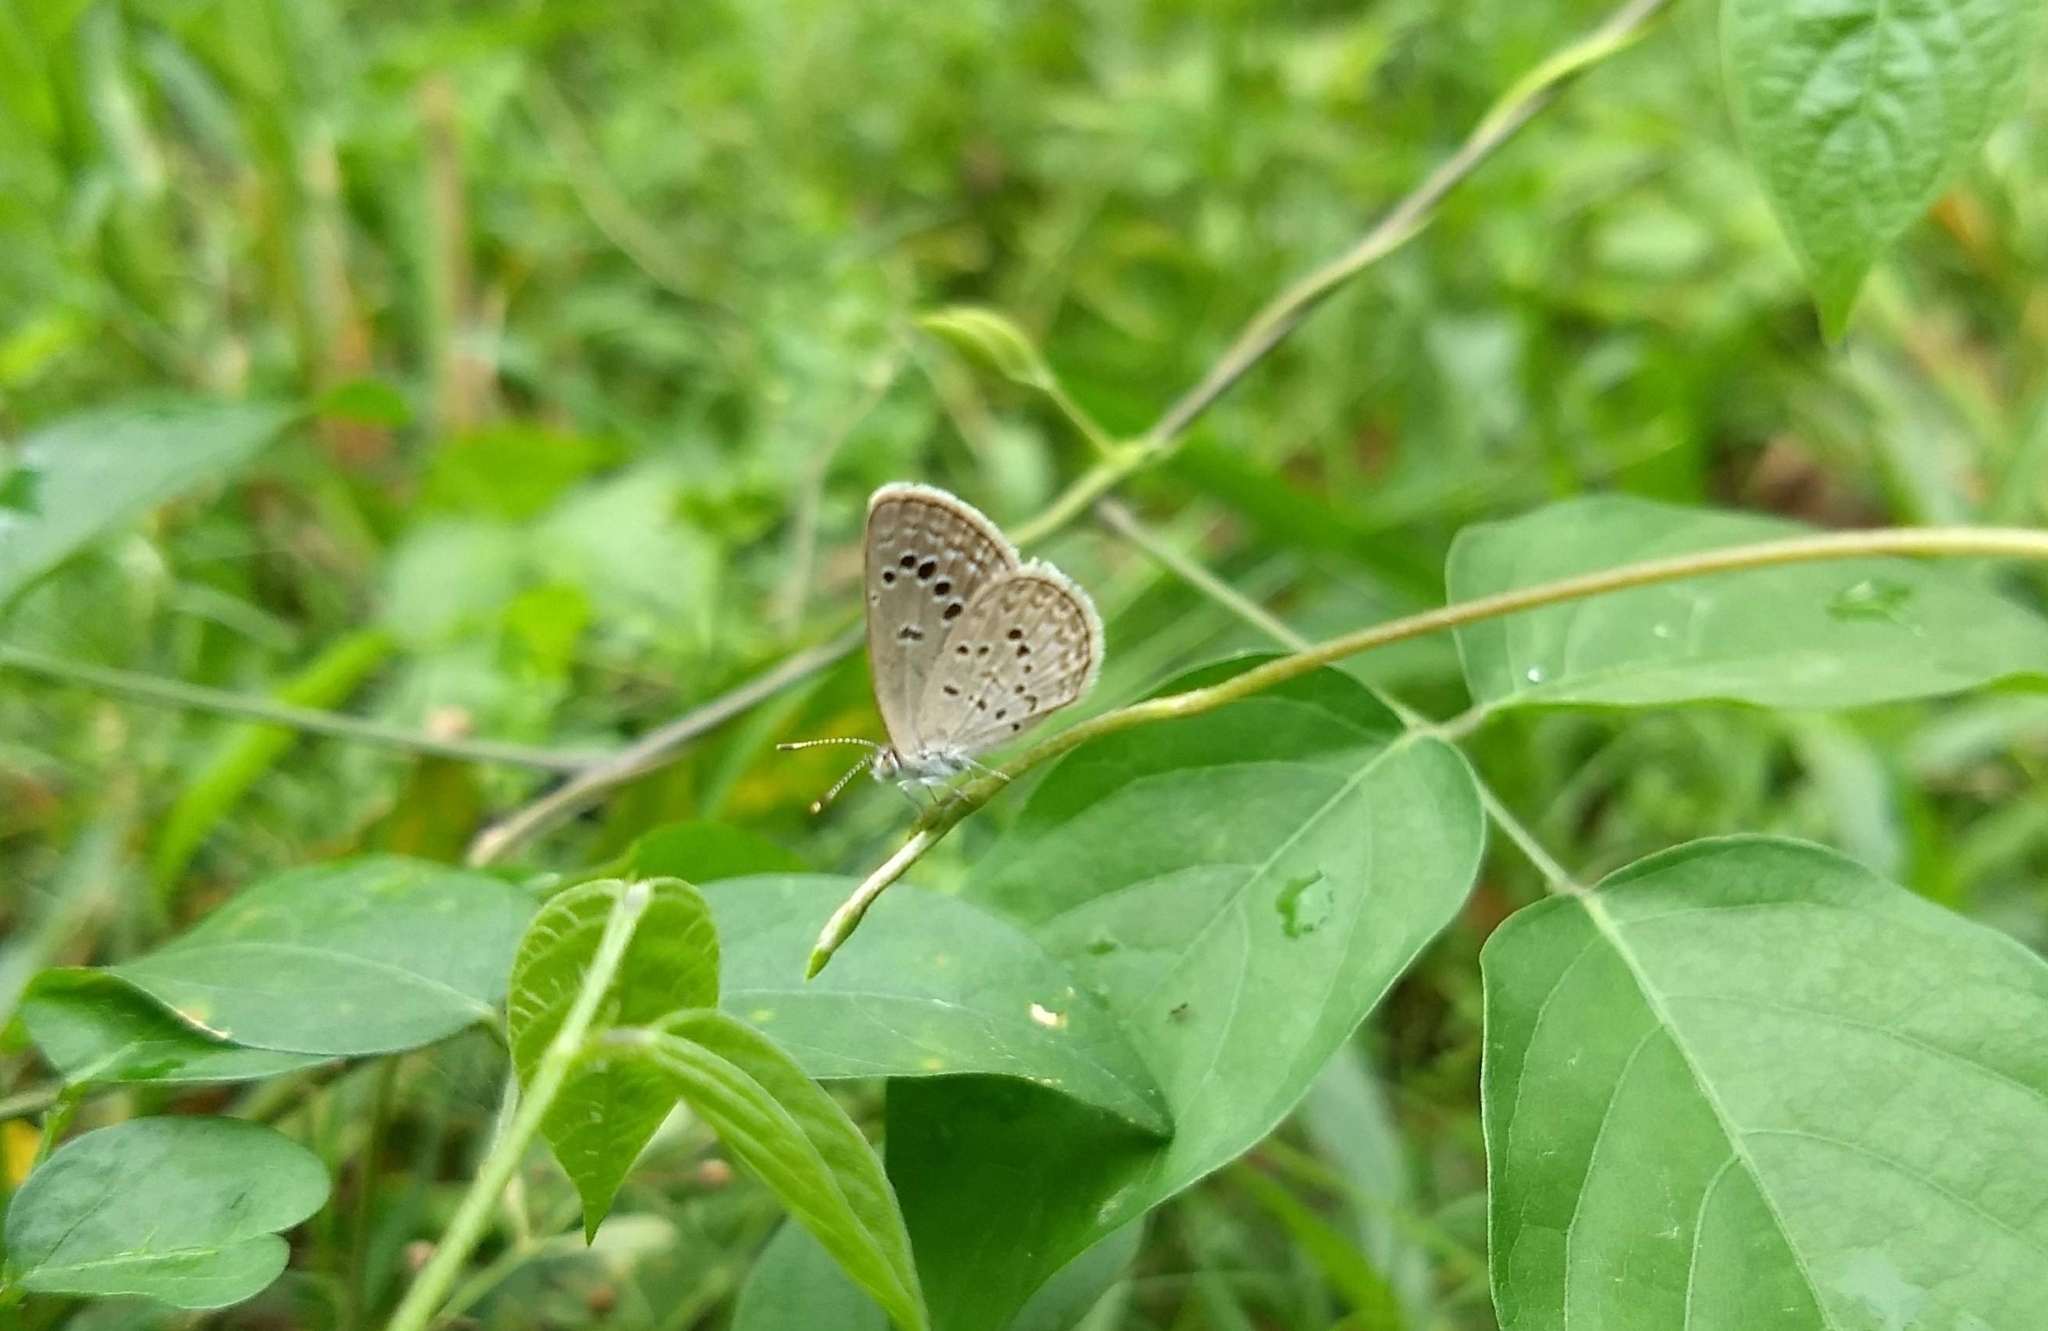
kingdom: Animalia
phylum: Arthropoda
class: Insecta
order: Lepidoptera
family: Lycaenidae
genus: Zizina
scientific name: Zizina otis
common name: Lesser grass blue
